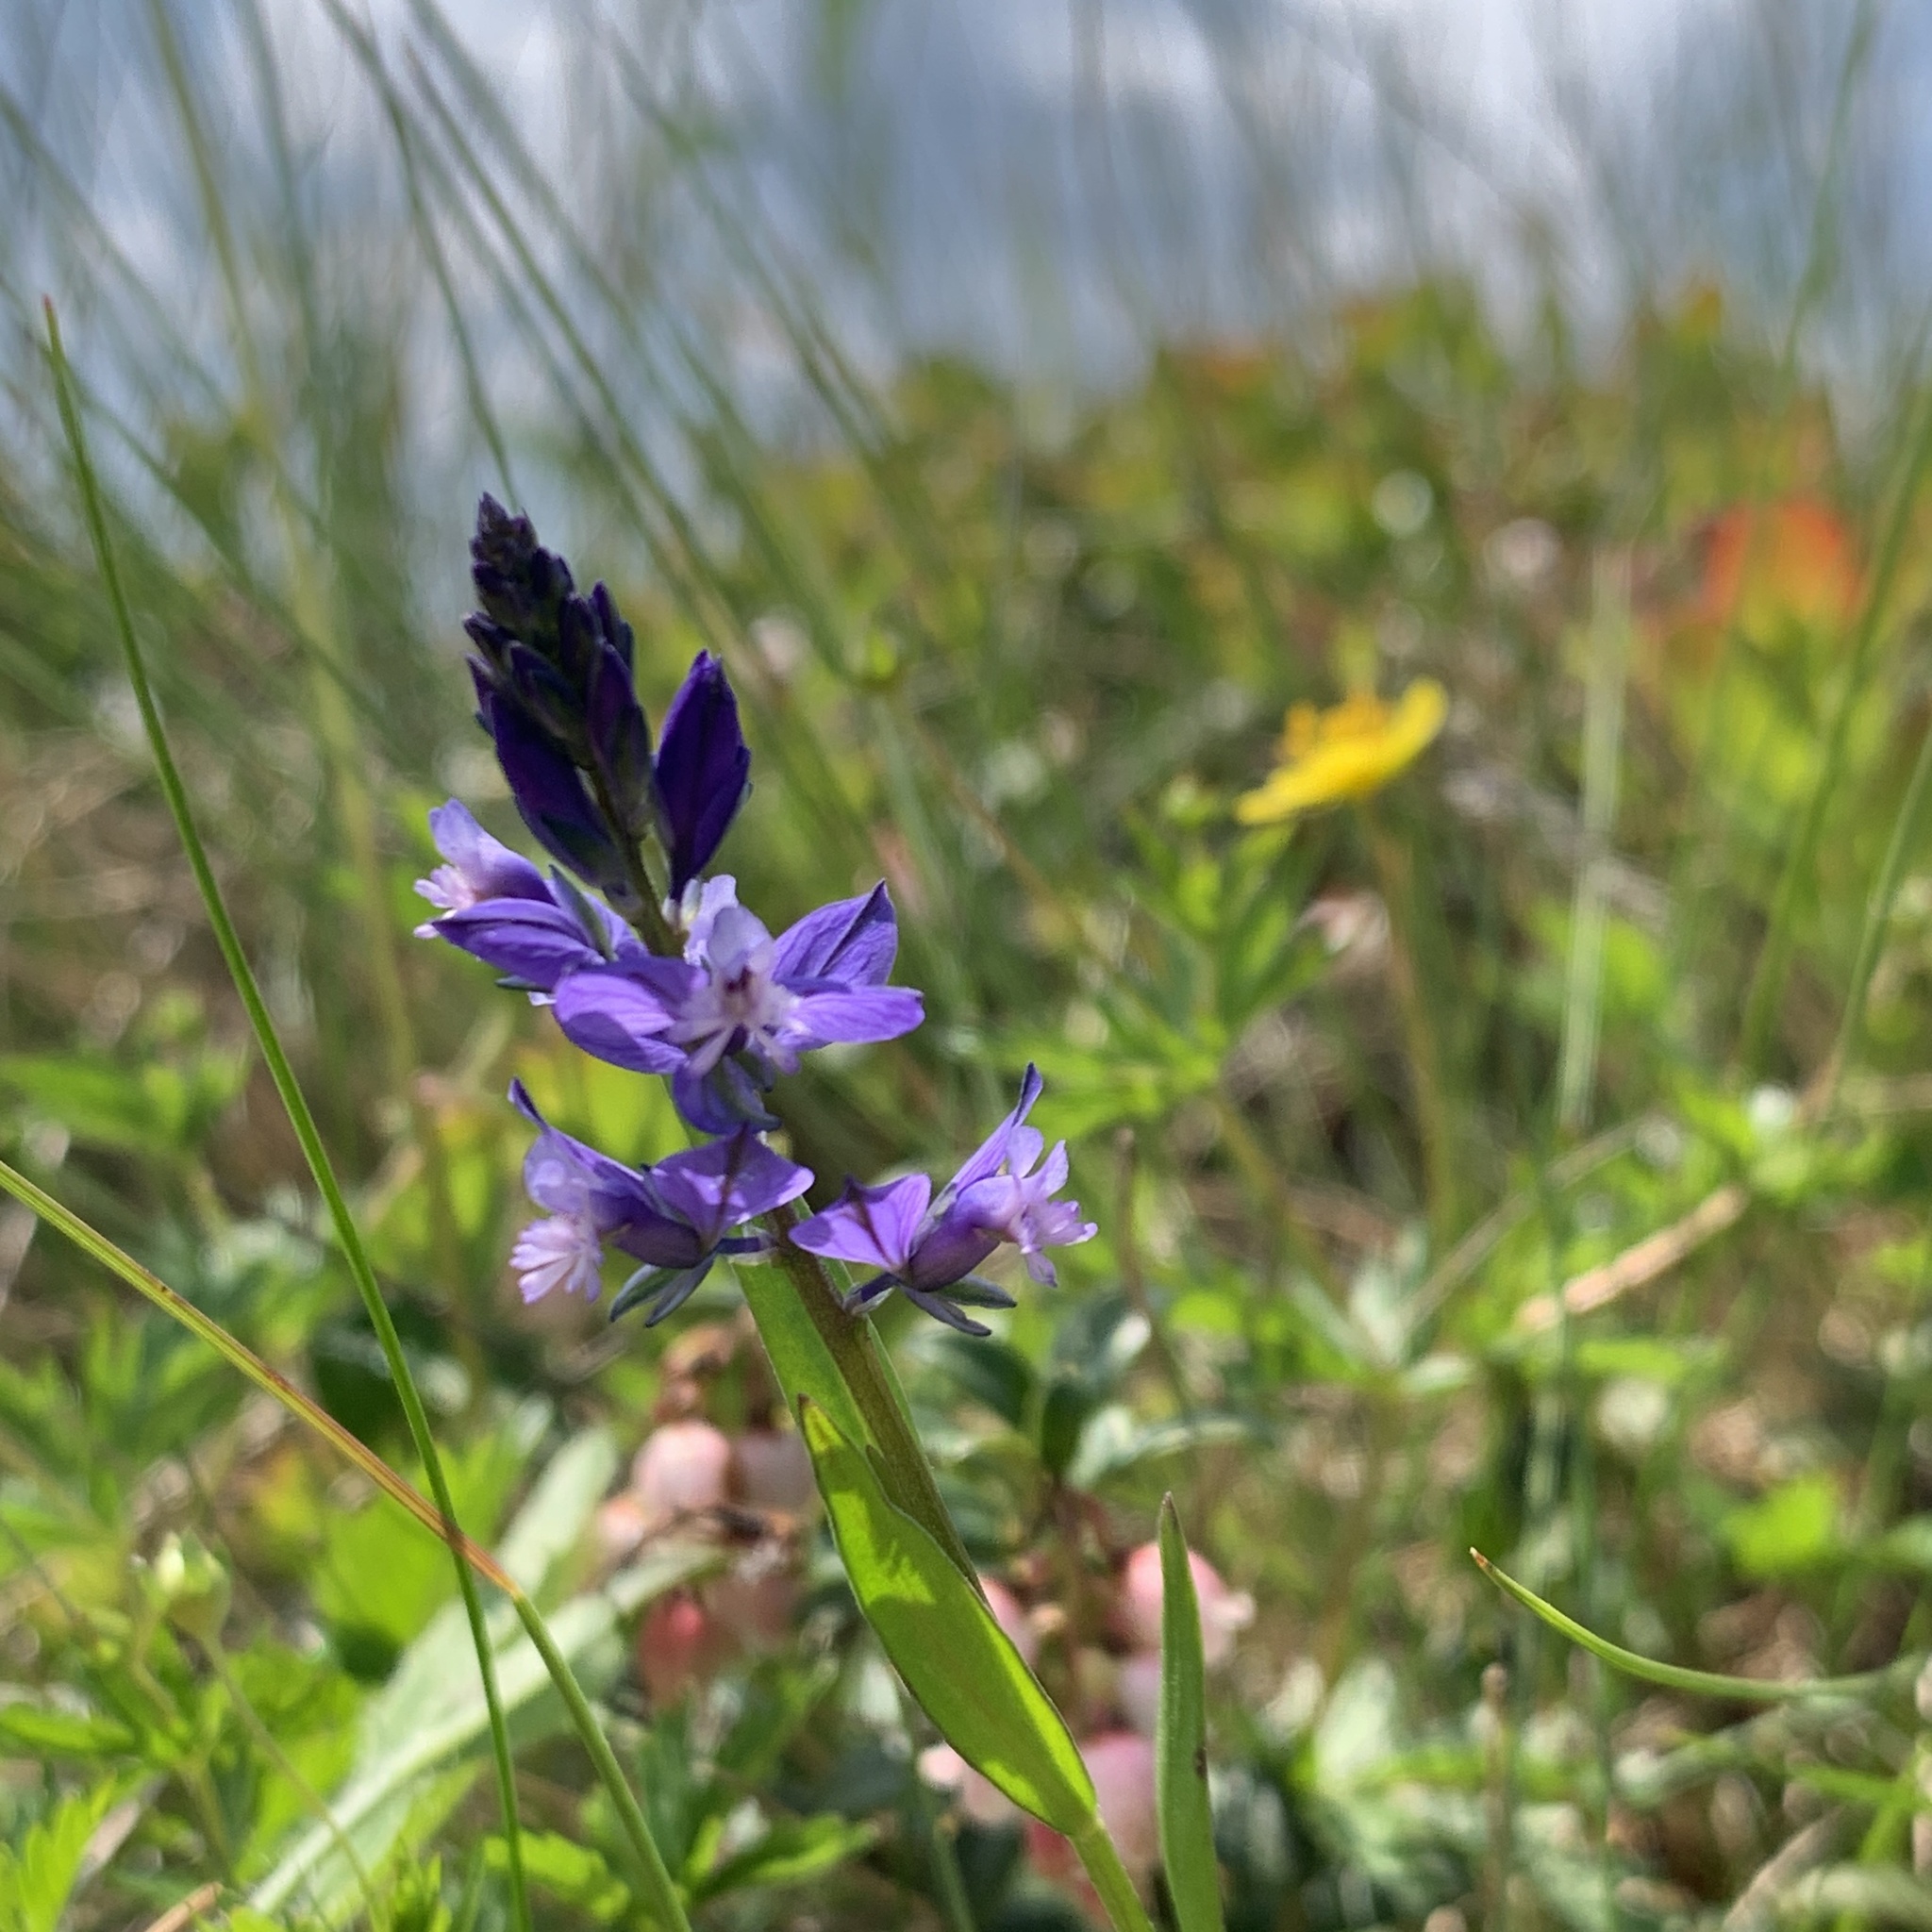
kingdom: Plantae
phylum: Tracheophyta
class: Magnoliopsida
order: Fabales
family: Polygalaceae
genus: Polygala
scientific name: Polygala vulgaris
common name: Common milkwort
